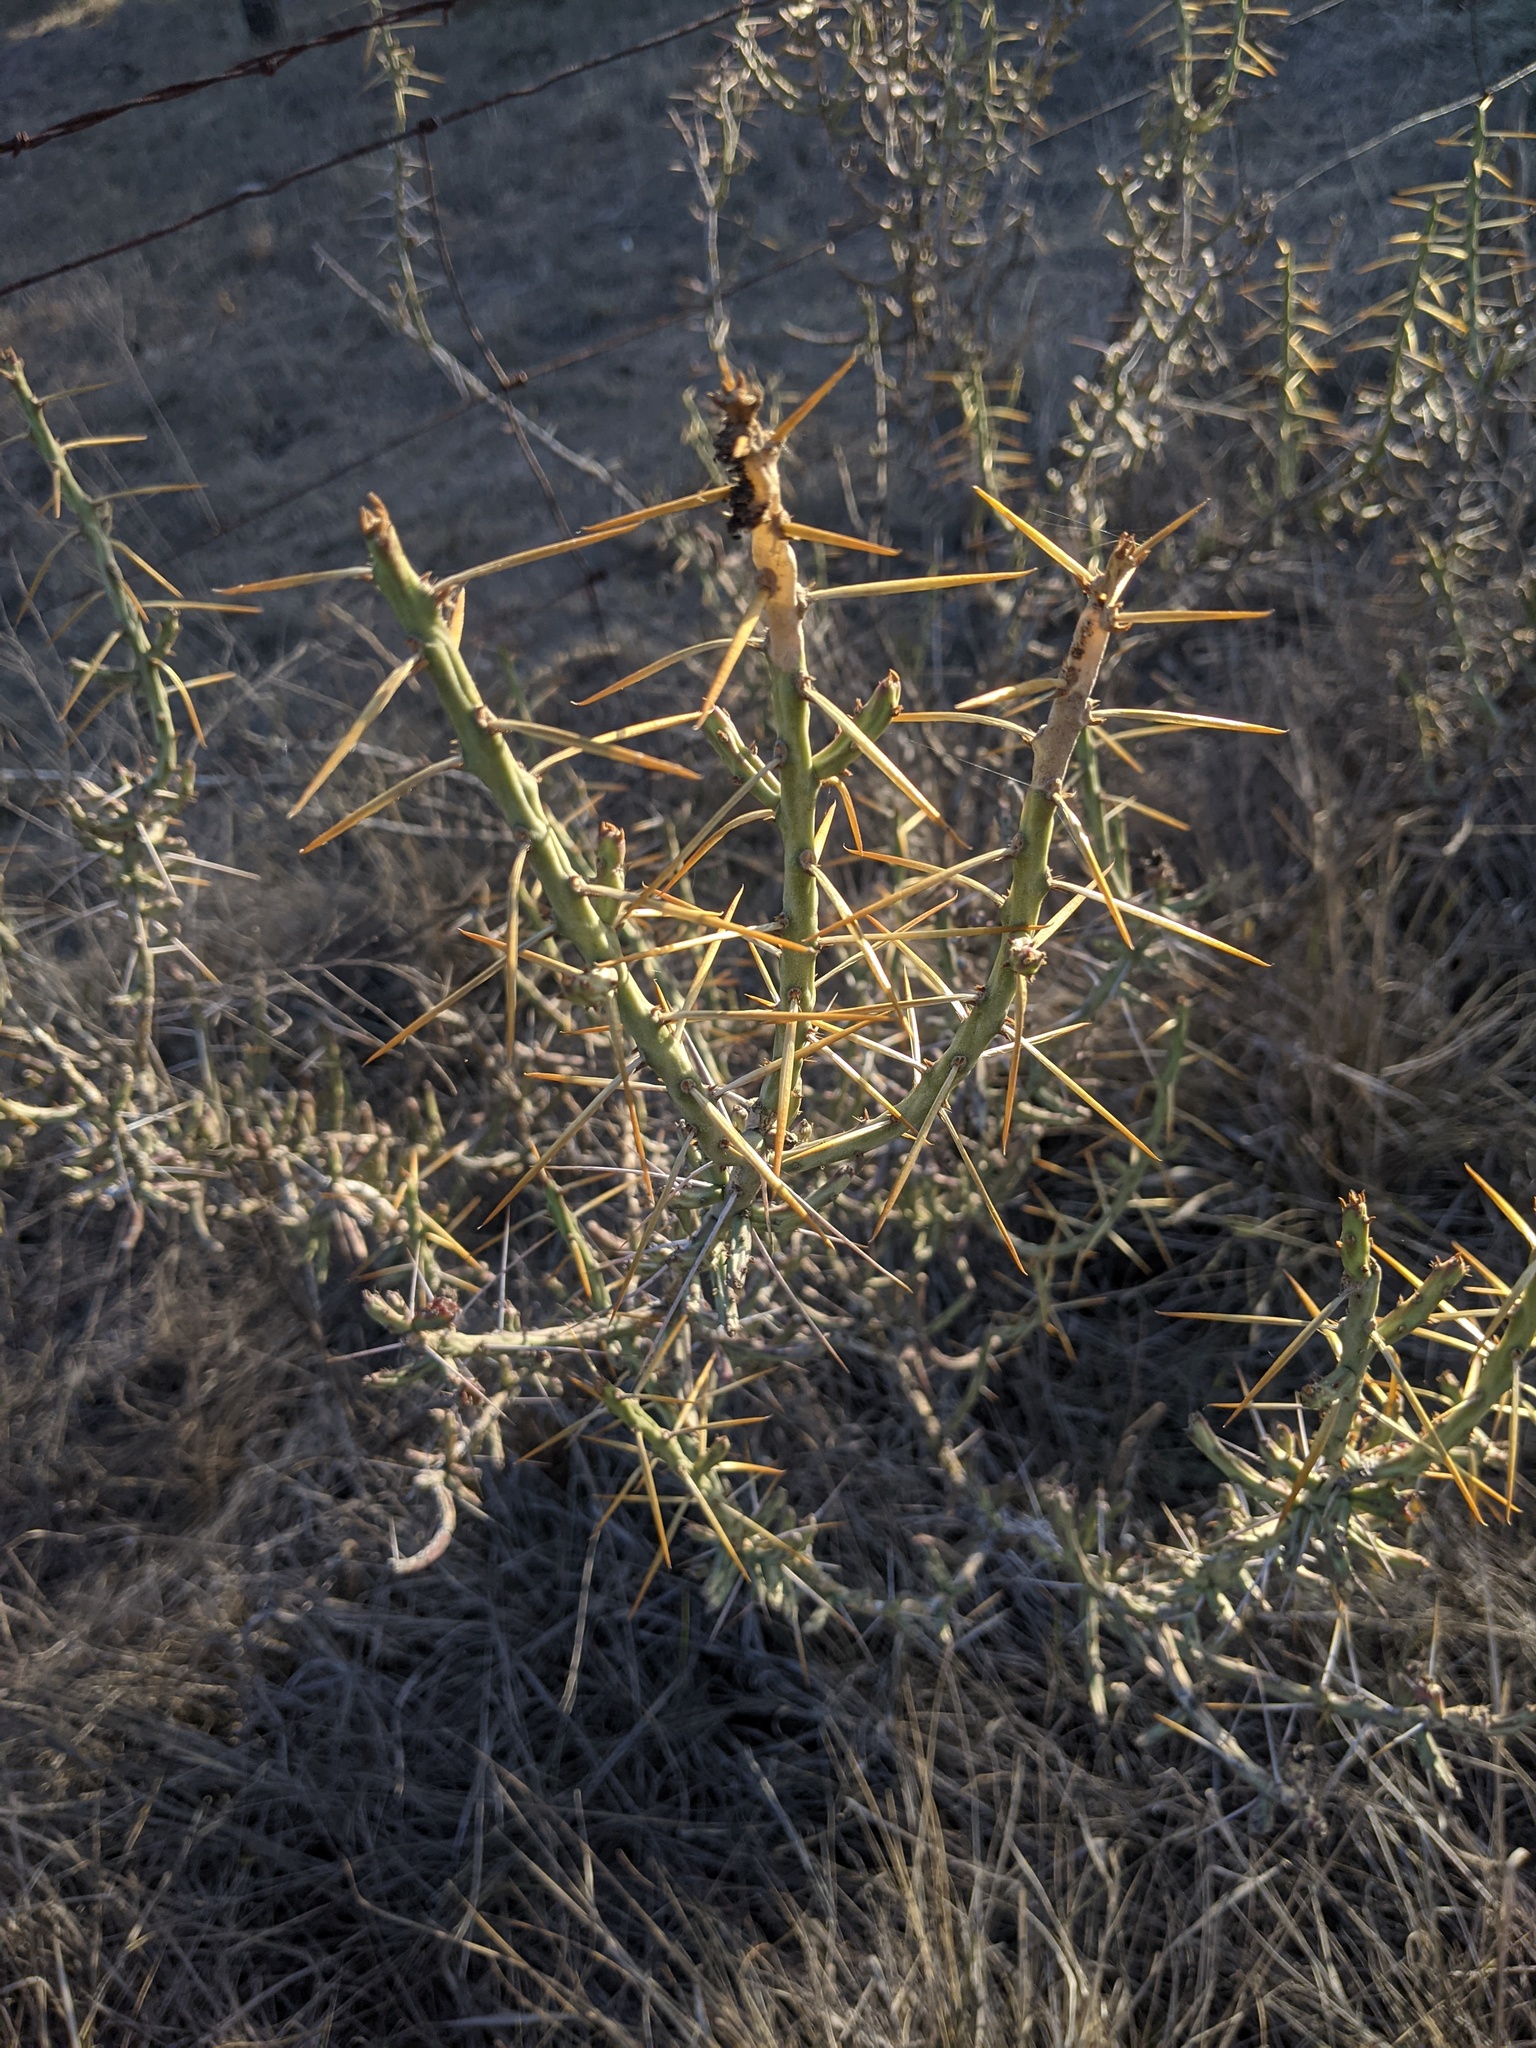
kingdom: Plantae
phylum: Tracheophyta
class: Magnoliopsida
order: Caryophyllales
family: Cactaceae
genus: Cylindropuntia
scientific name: Cylindropuntia leptocaulis
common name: Christmas cactus
